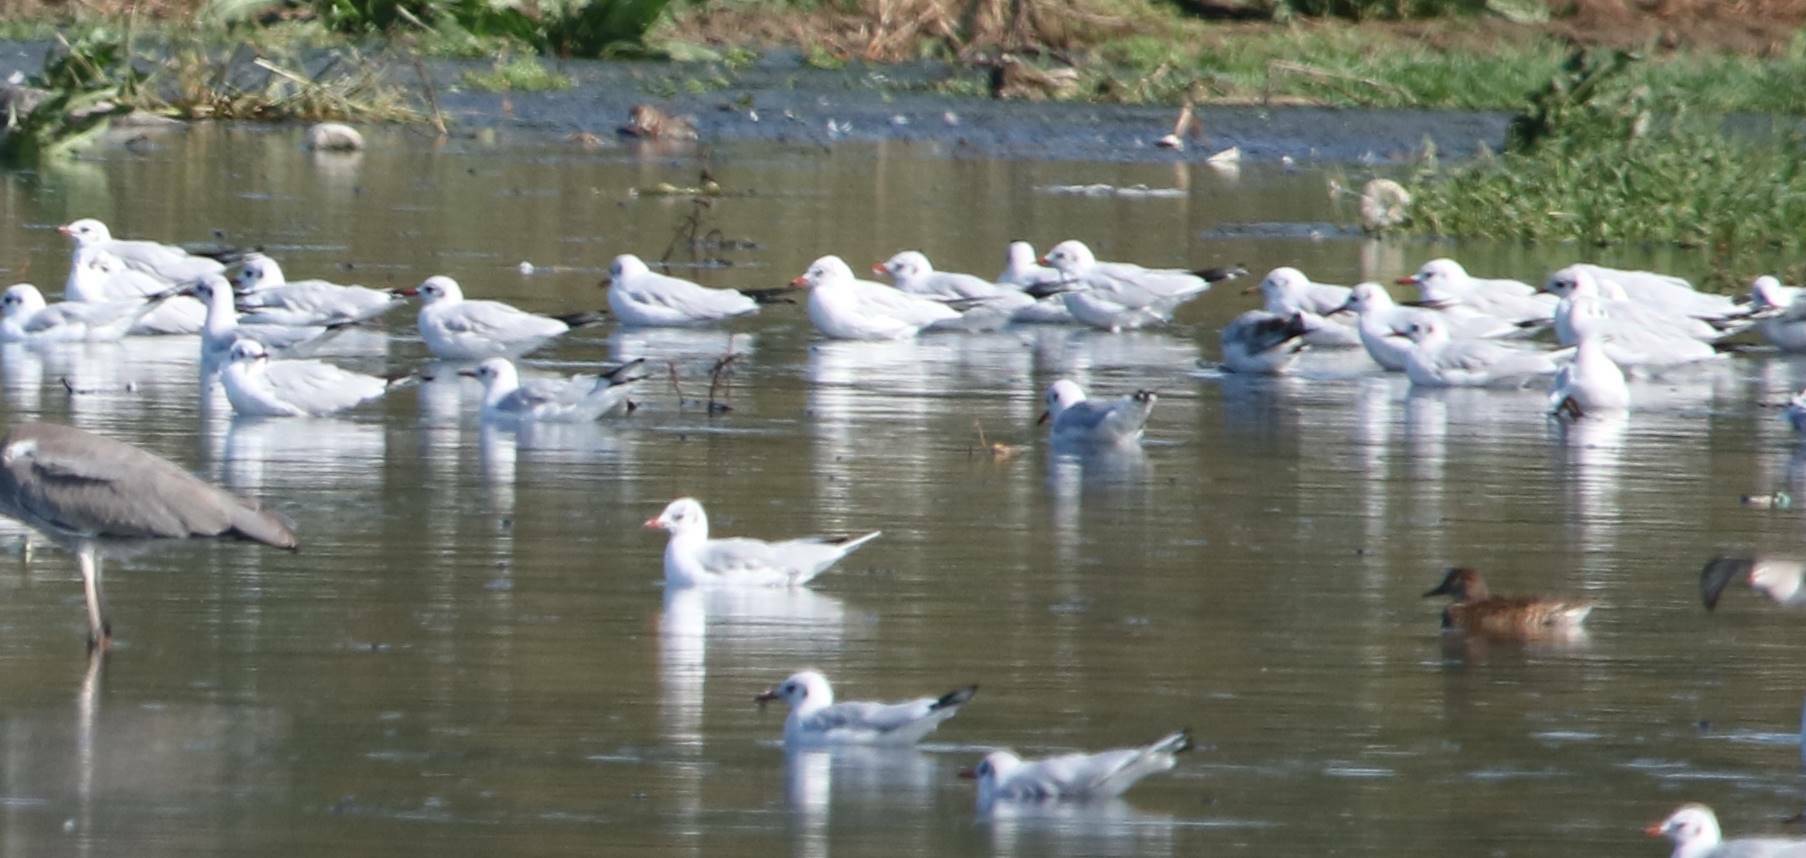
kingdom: Animalia
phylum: Chordata
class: Aves
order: Charadriiformes
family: Laridae
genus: Chroicocephalus
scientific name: Chroicocephalus ridibundus
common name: Black-headed gull
